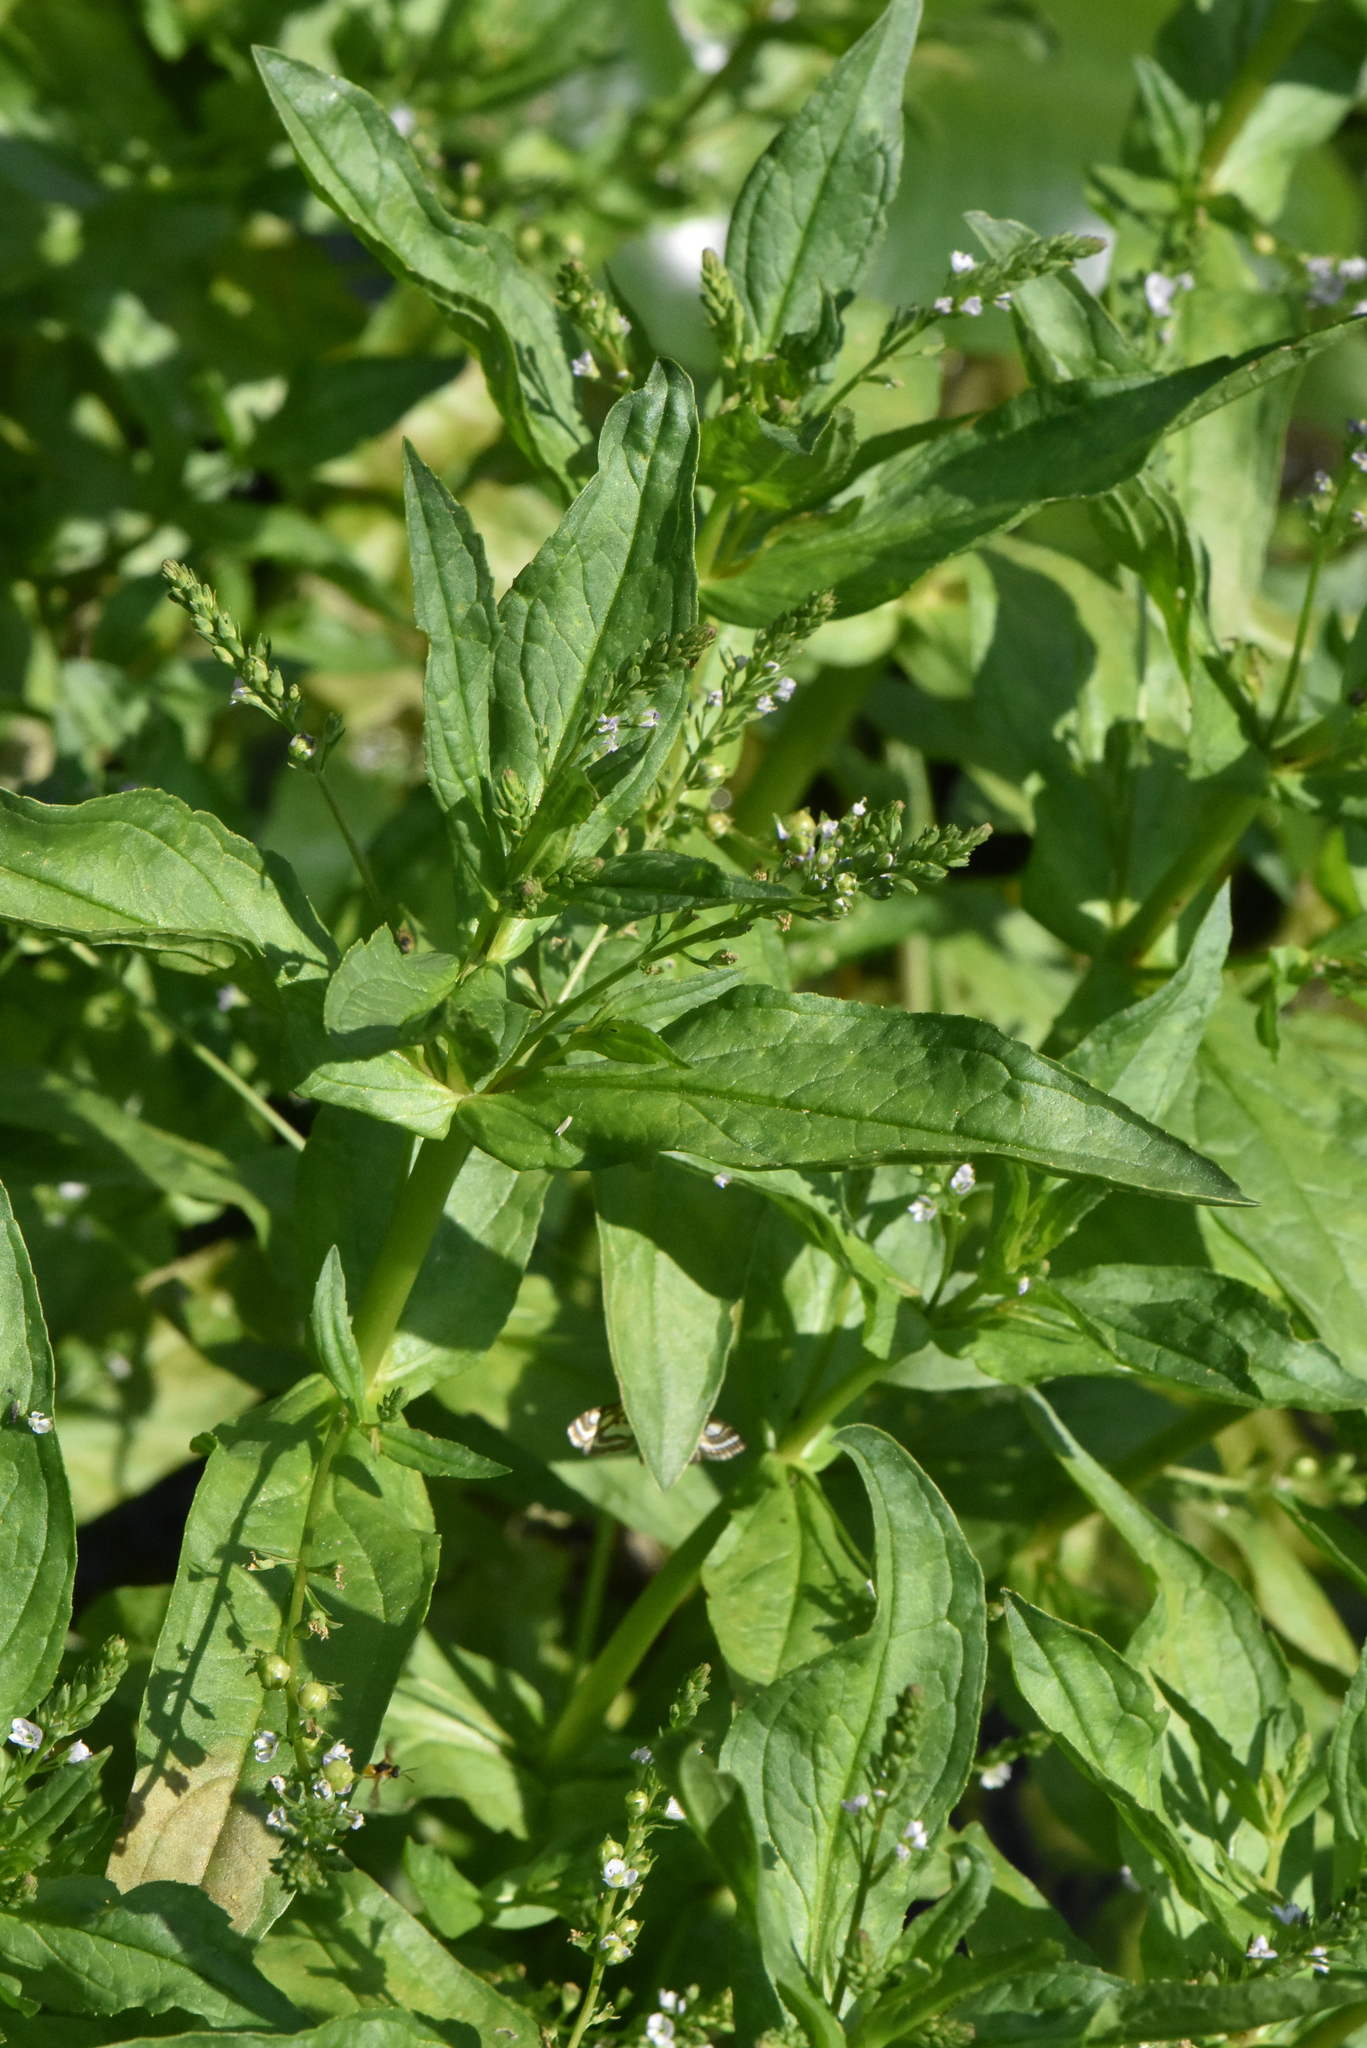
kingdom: Plantae
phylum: Tracheophyta
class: Magnoliopsida
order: Lamiales
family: Plantaginaceae
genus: Veronica
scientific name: Veronica anagallis-aquatica
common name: Water speedwell
